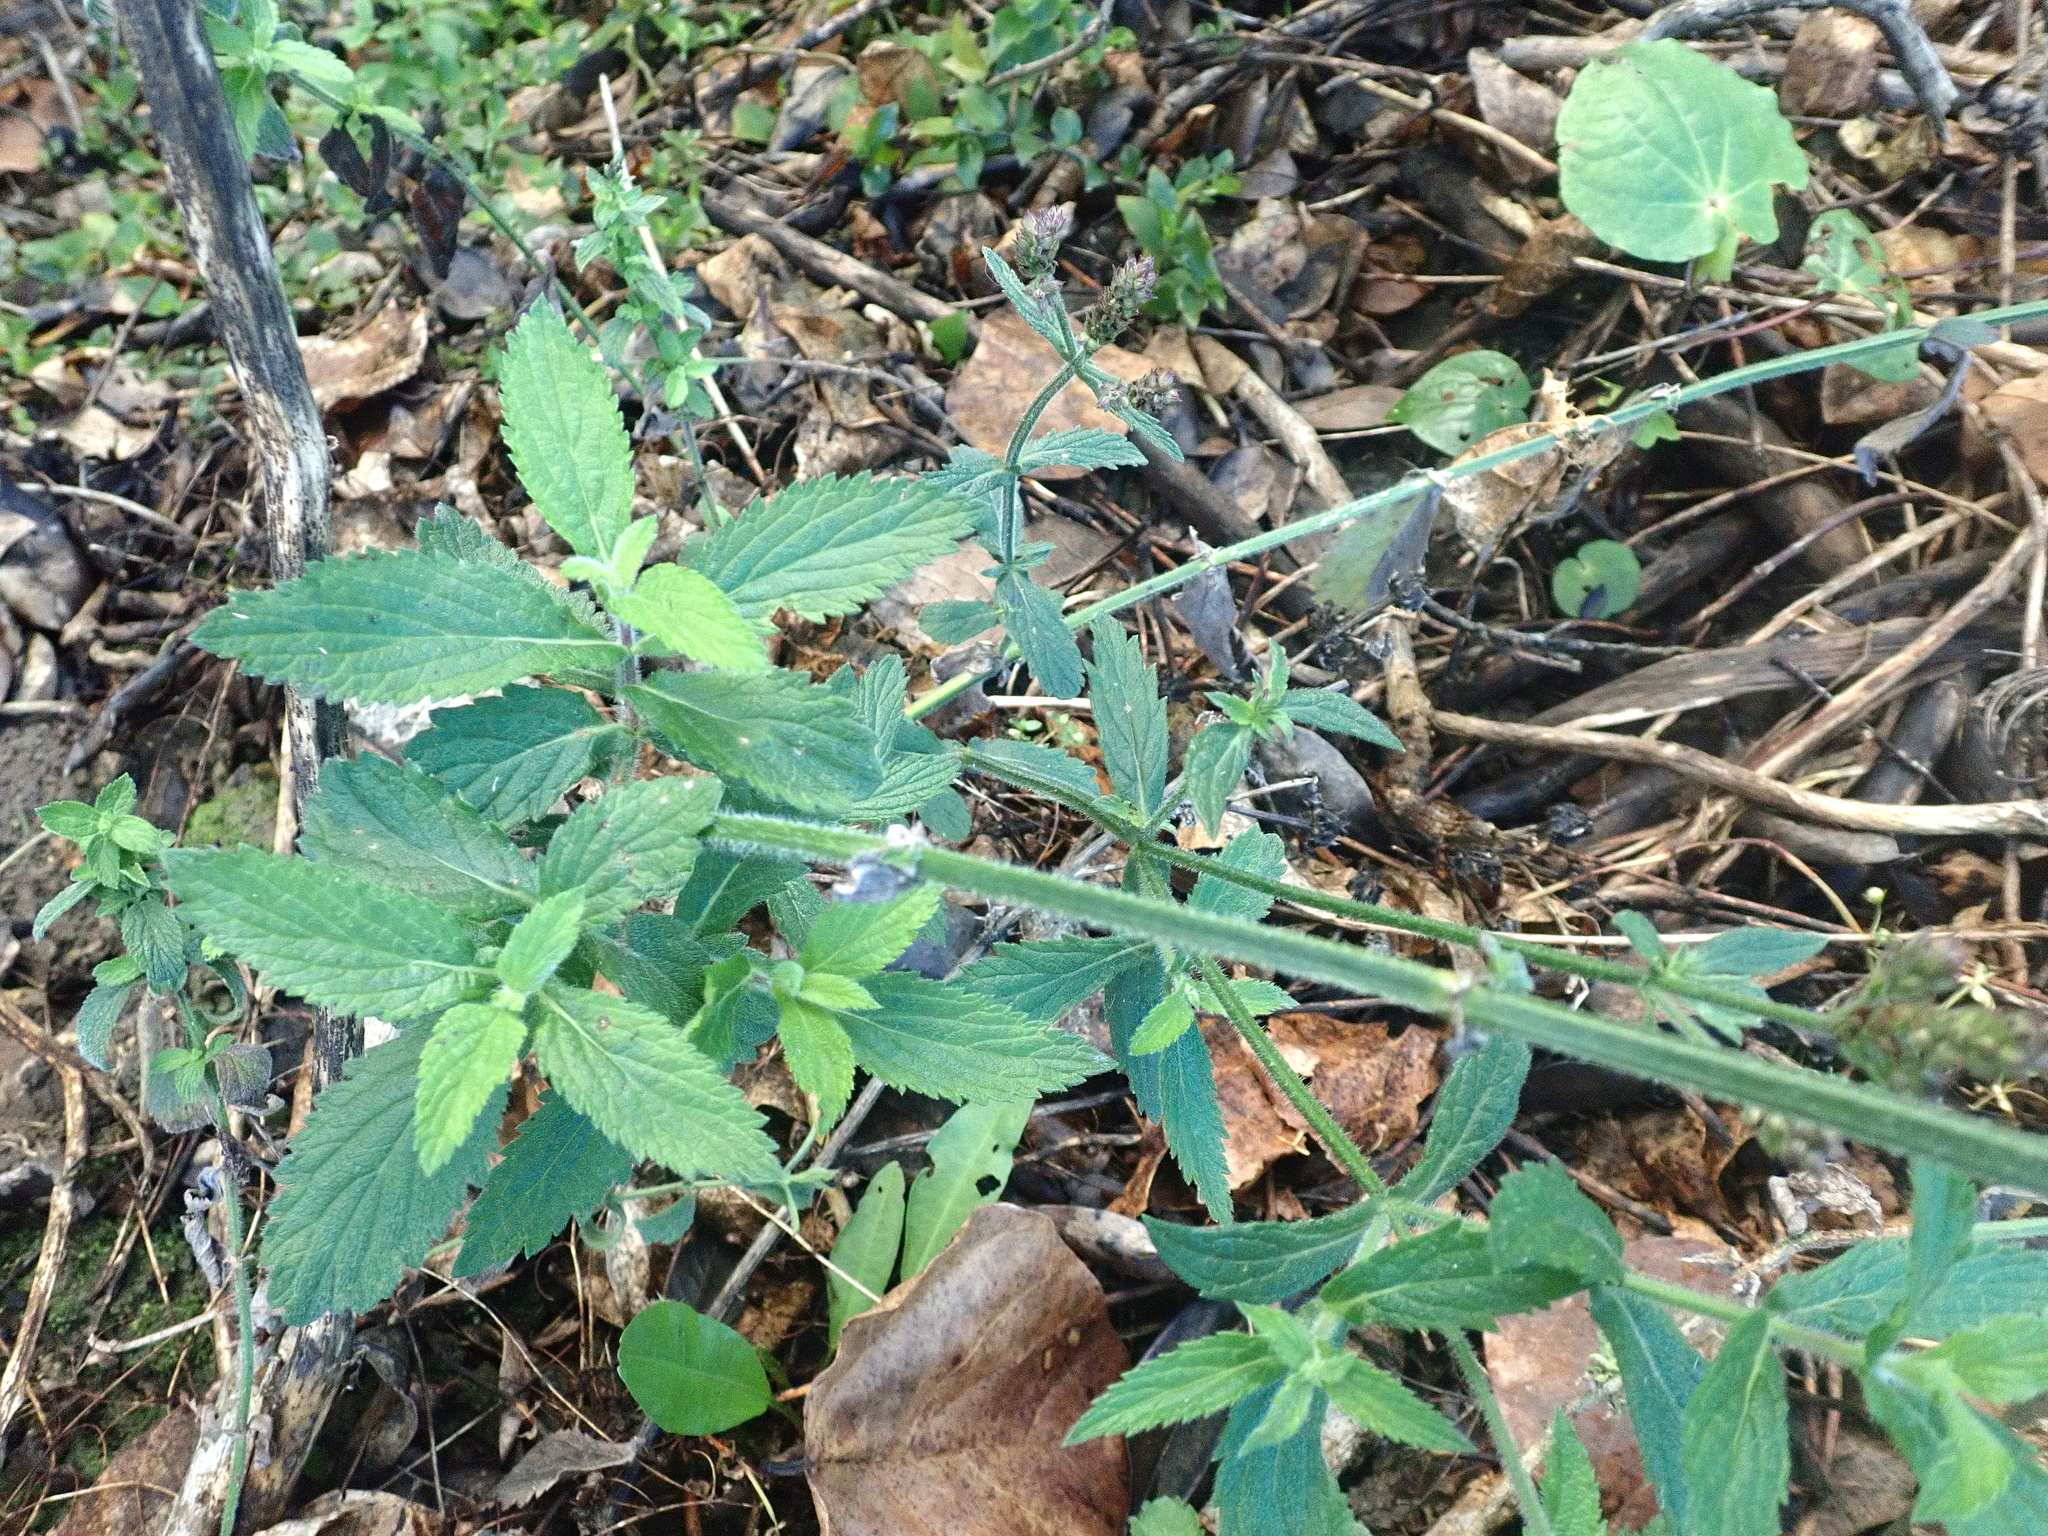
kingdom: Plantae
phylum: Tracheophyta
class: Magnoliopsida
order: Lamiales
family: Verbenaceae
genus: Verbena
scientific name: Verbena incompta
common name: Purpletop vervain
